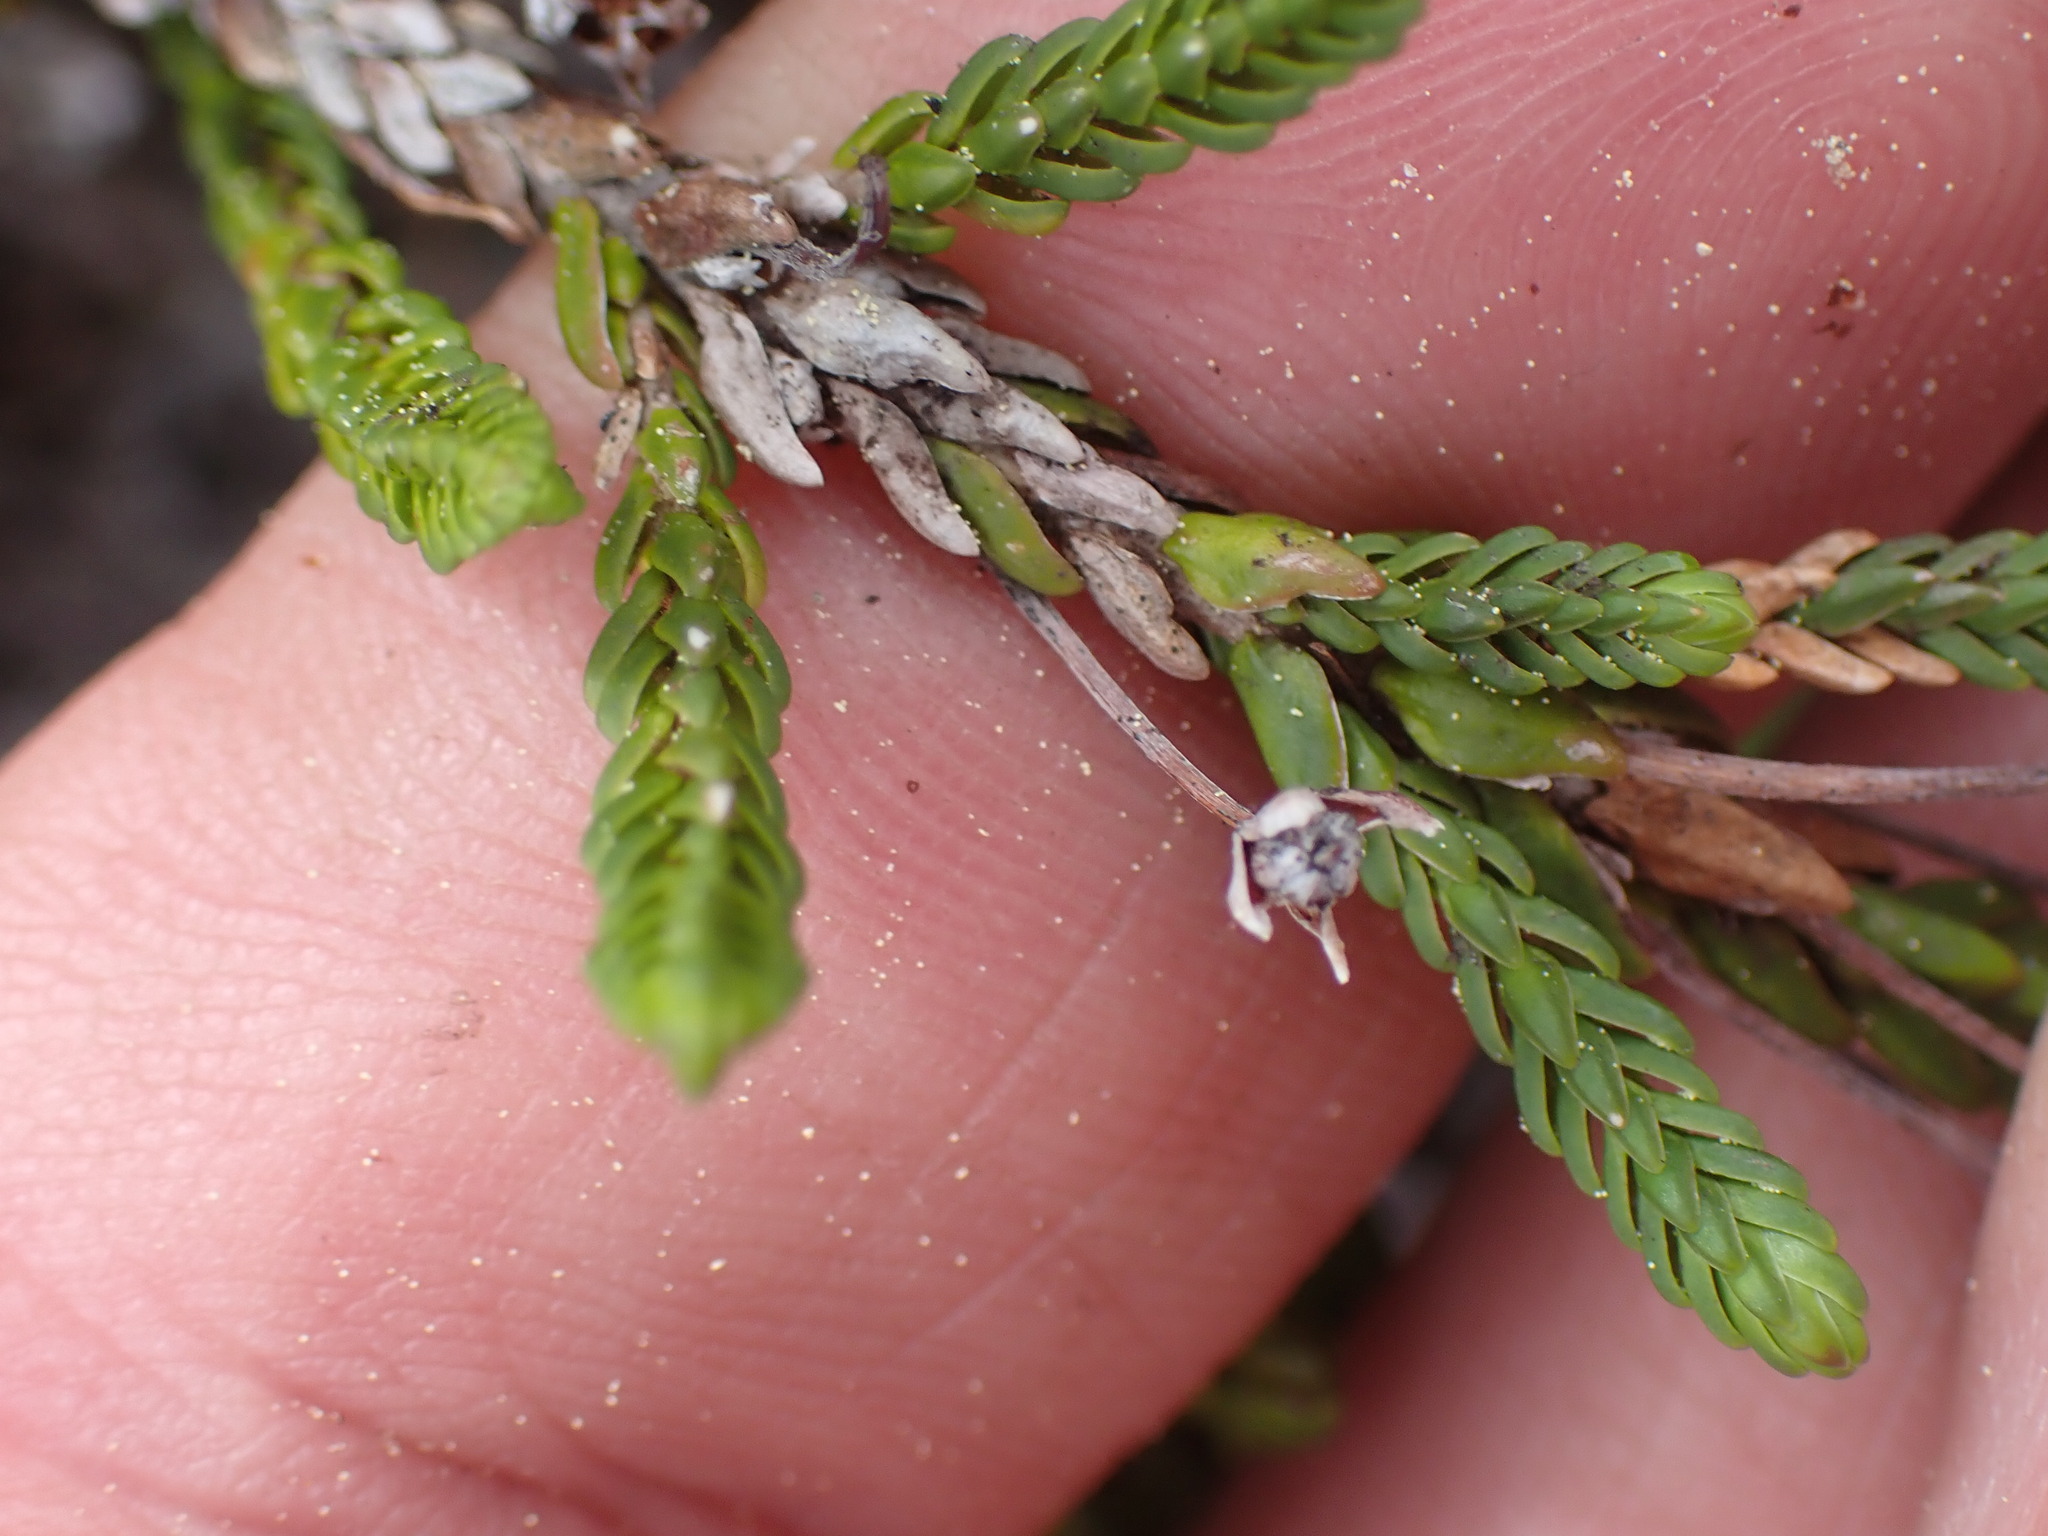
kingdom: Plantae
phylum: Tracheophyta
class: Magnoliopsida
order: Ericales
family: Ericaceae
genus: Cassiope
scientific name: Cassiope mertensiana
